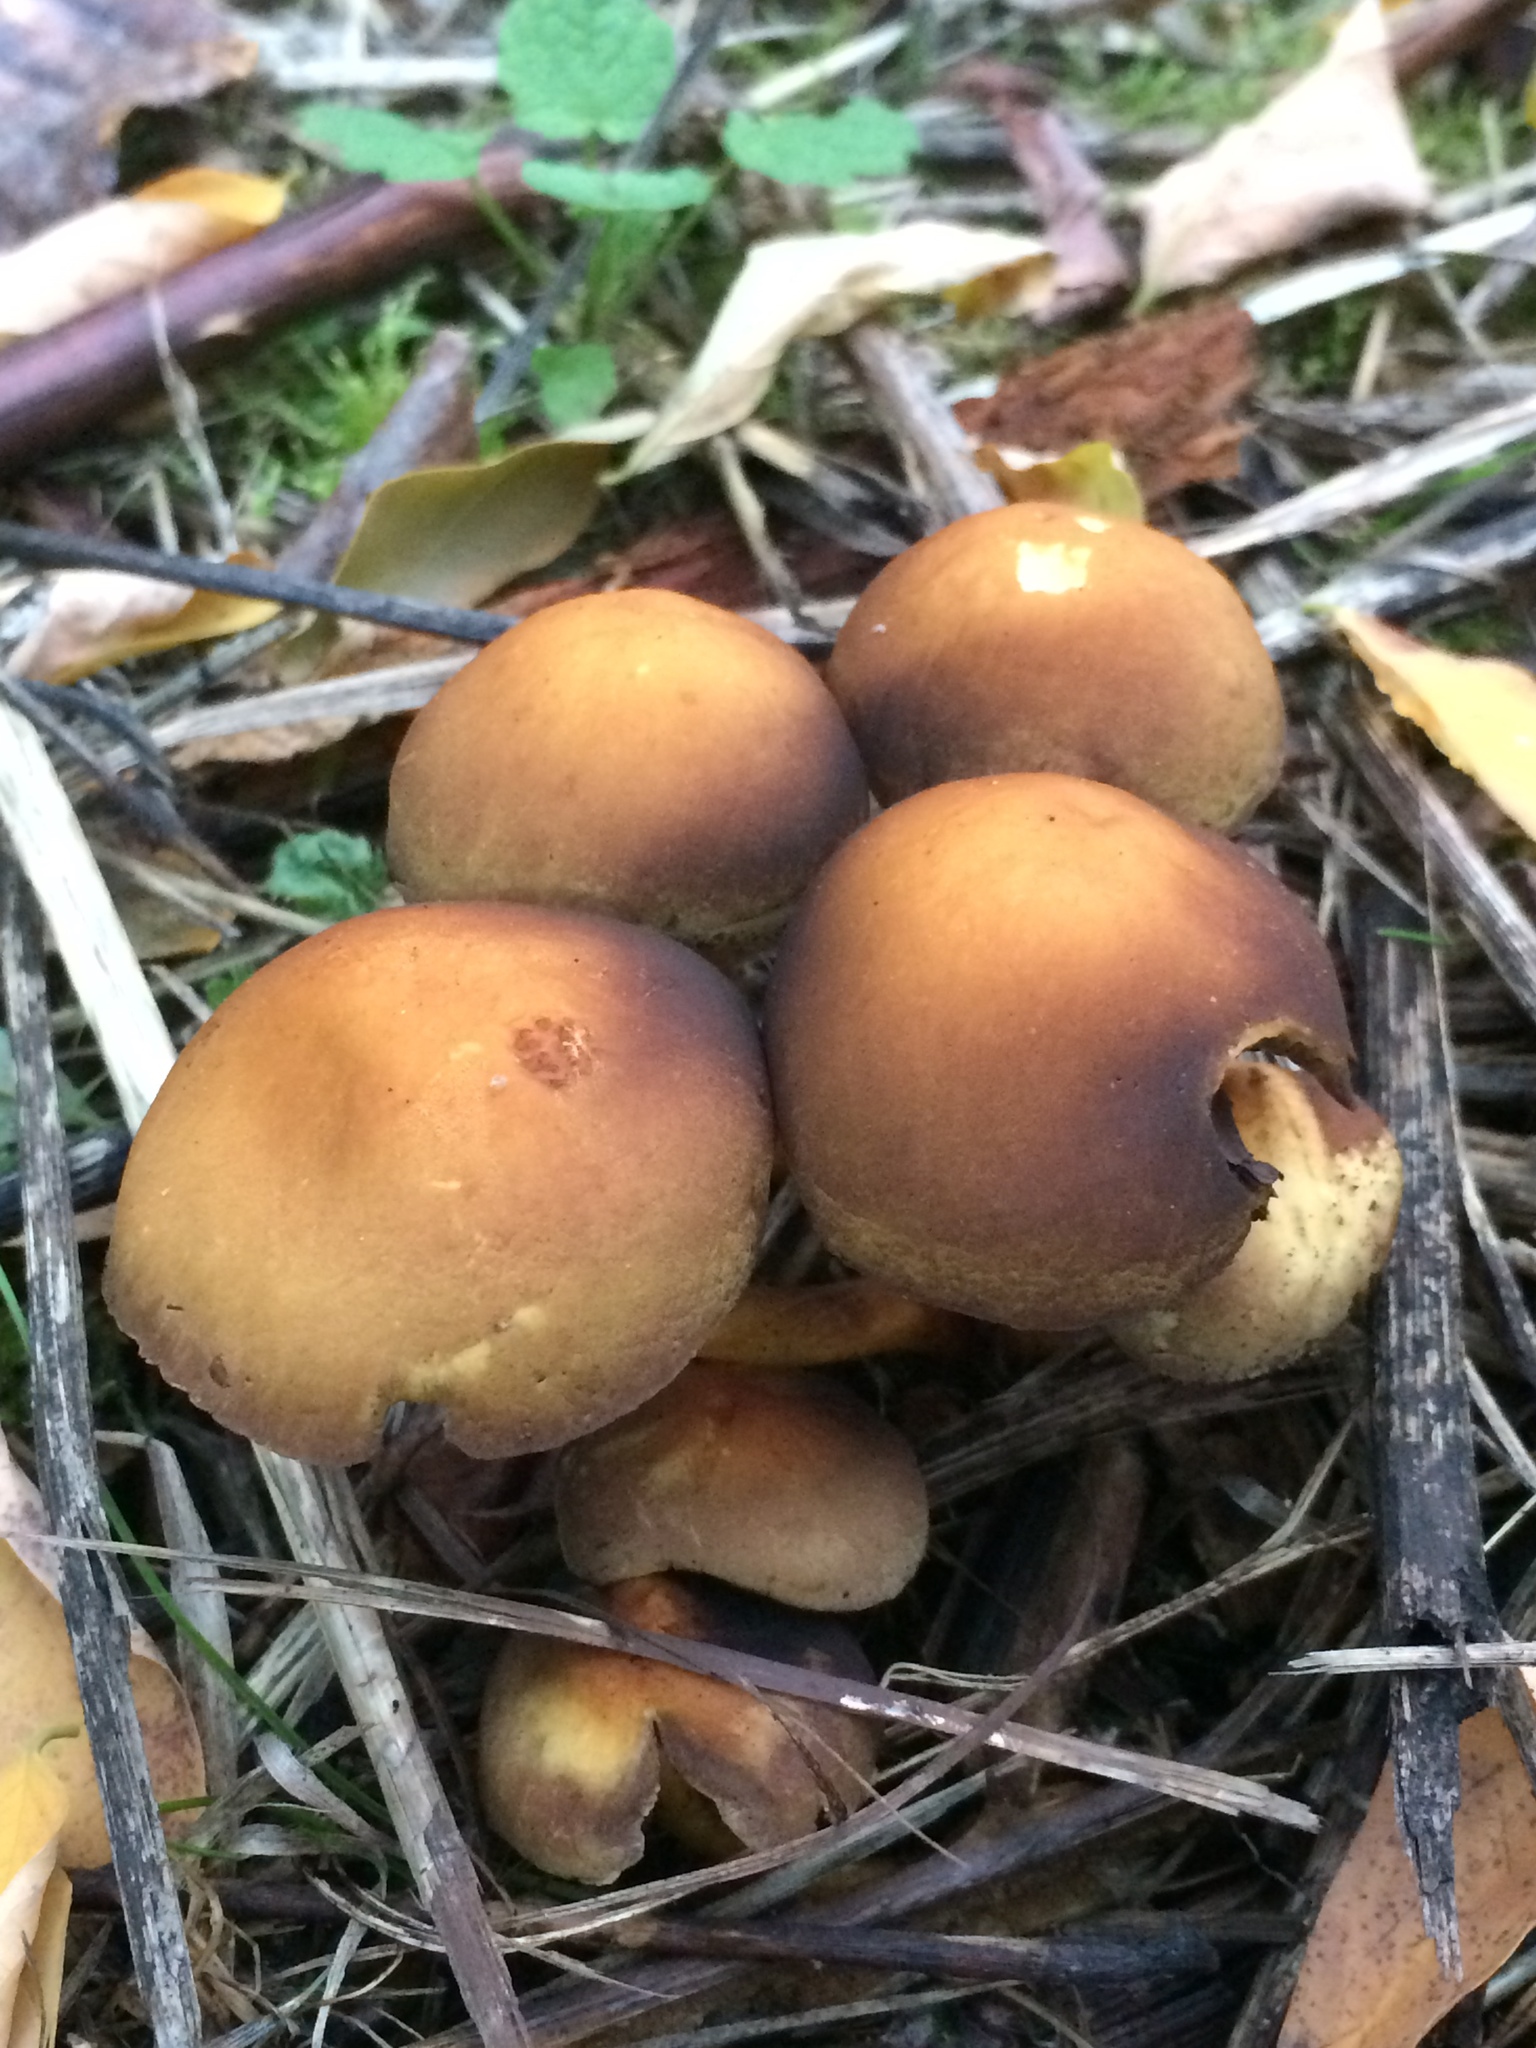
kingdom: Fungi
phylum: Basidiomycota
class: Agaricomycetes
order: Agaricales
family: Strophariaceae
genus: Hypholoma
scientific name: Hypholoma fasciculare
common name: Sulphur tuft
